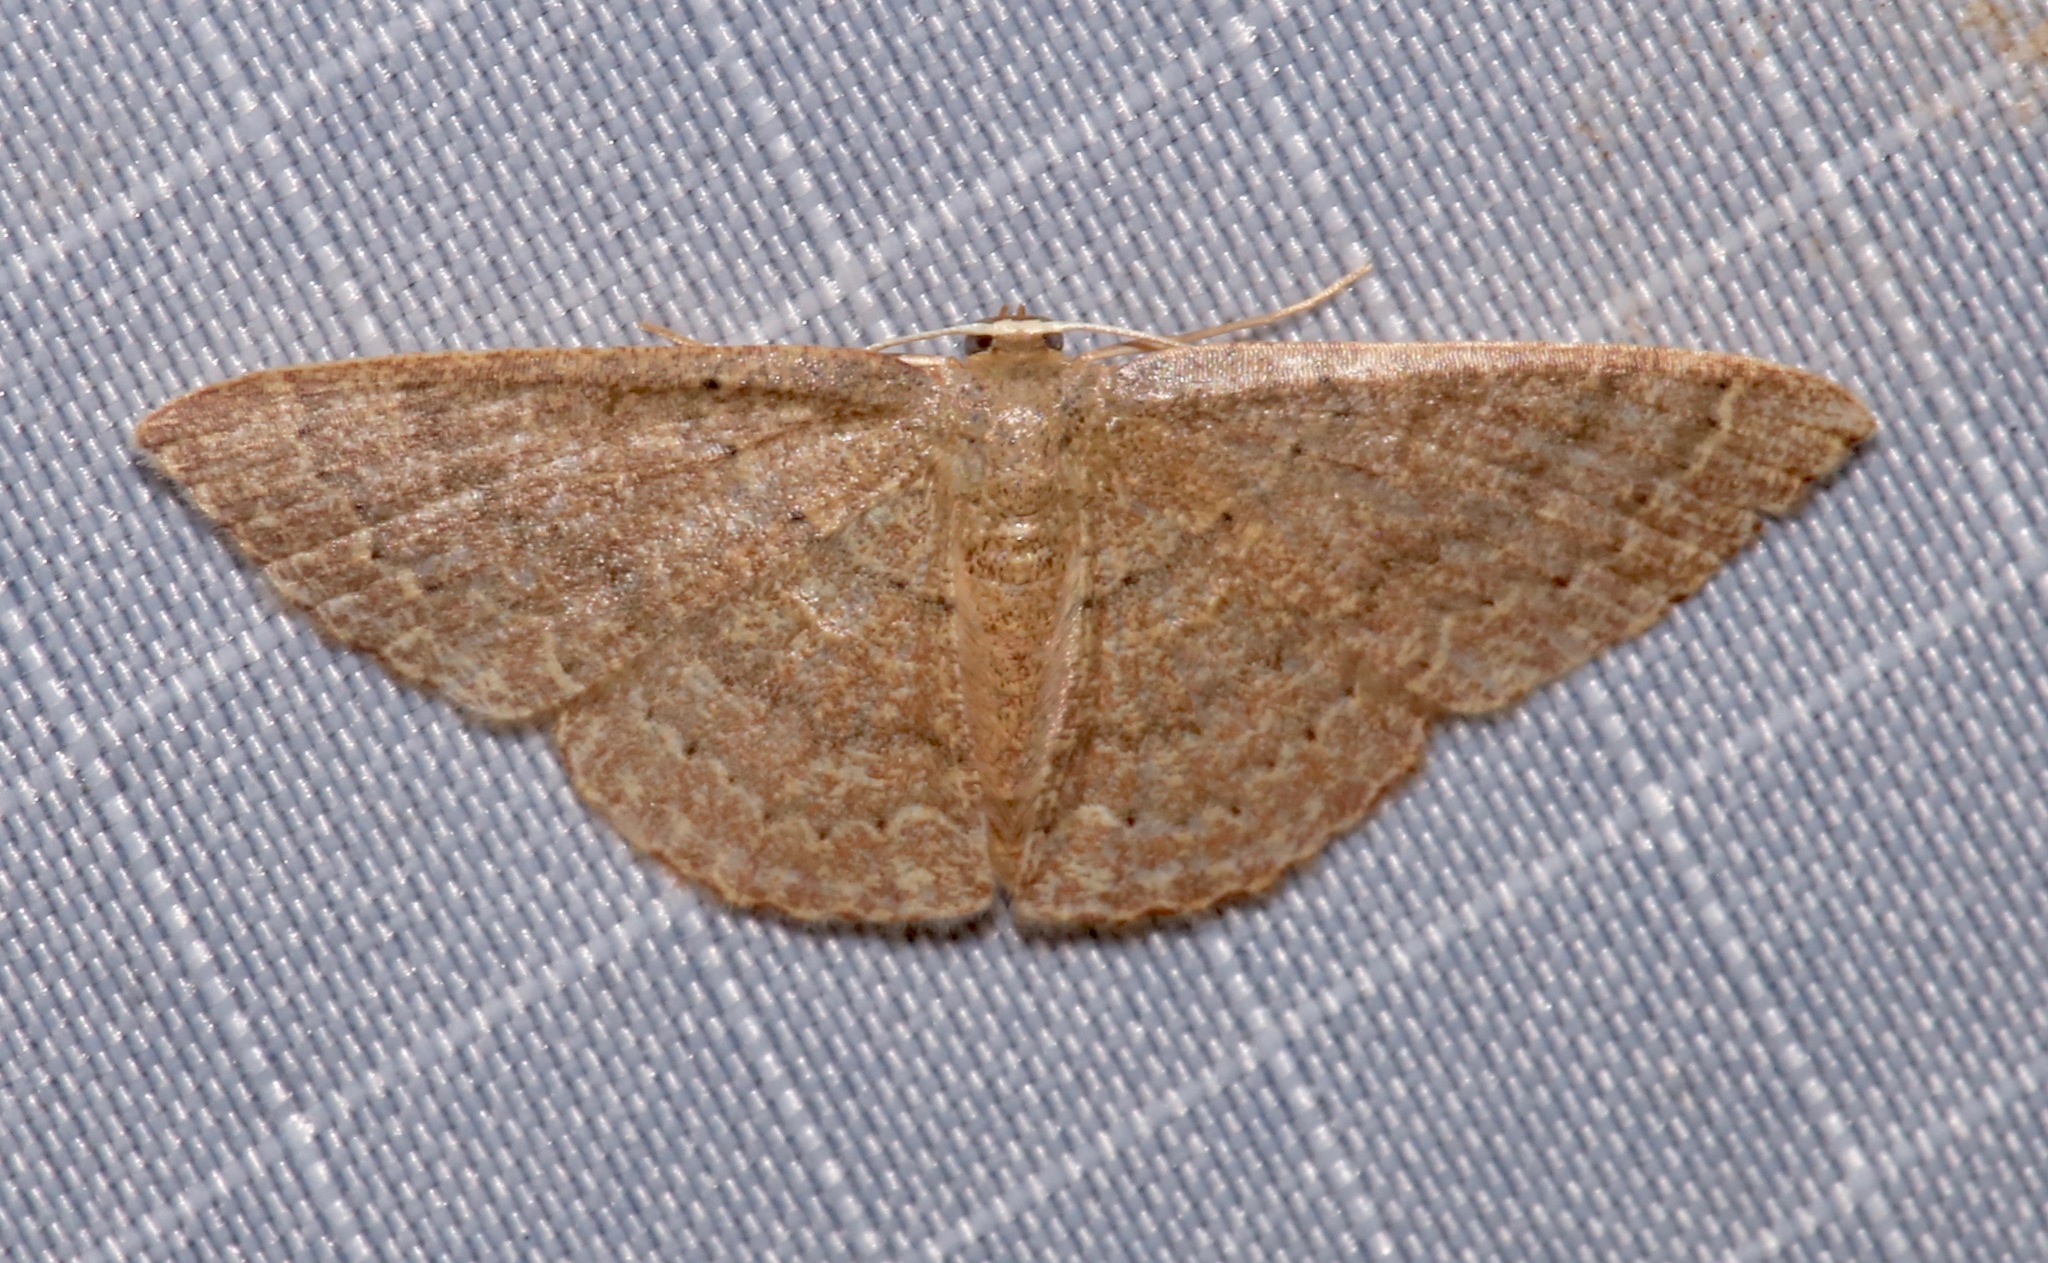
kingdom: Animalia
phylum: Arthropoda
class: Insecta
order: Lepidoptera
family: Geometridae
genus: Pleuroprucha
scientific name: Pleuroprucha insulsaria
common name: Common tan wave
